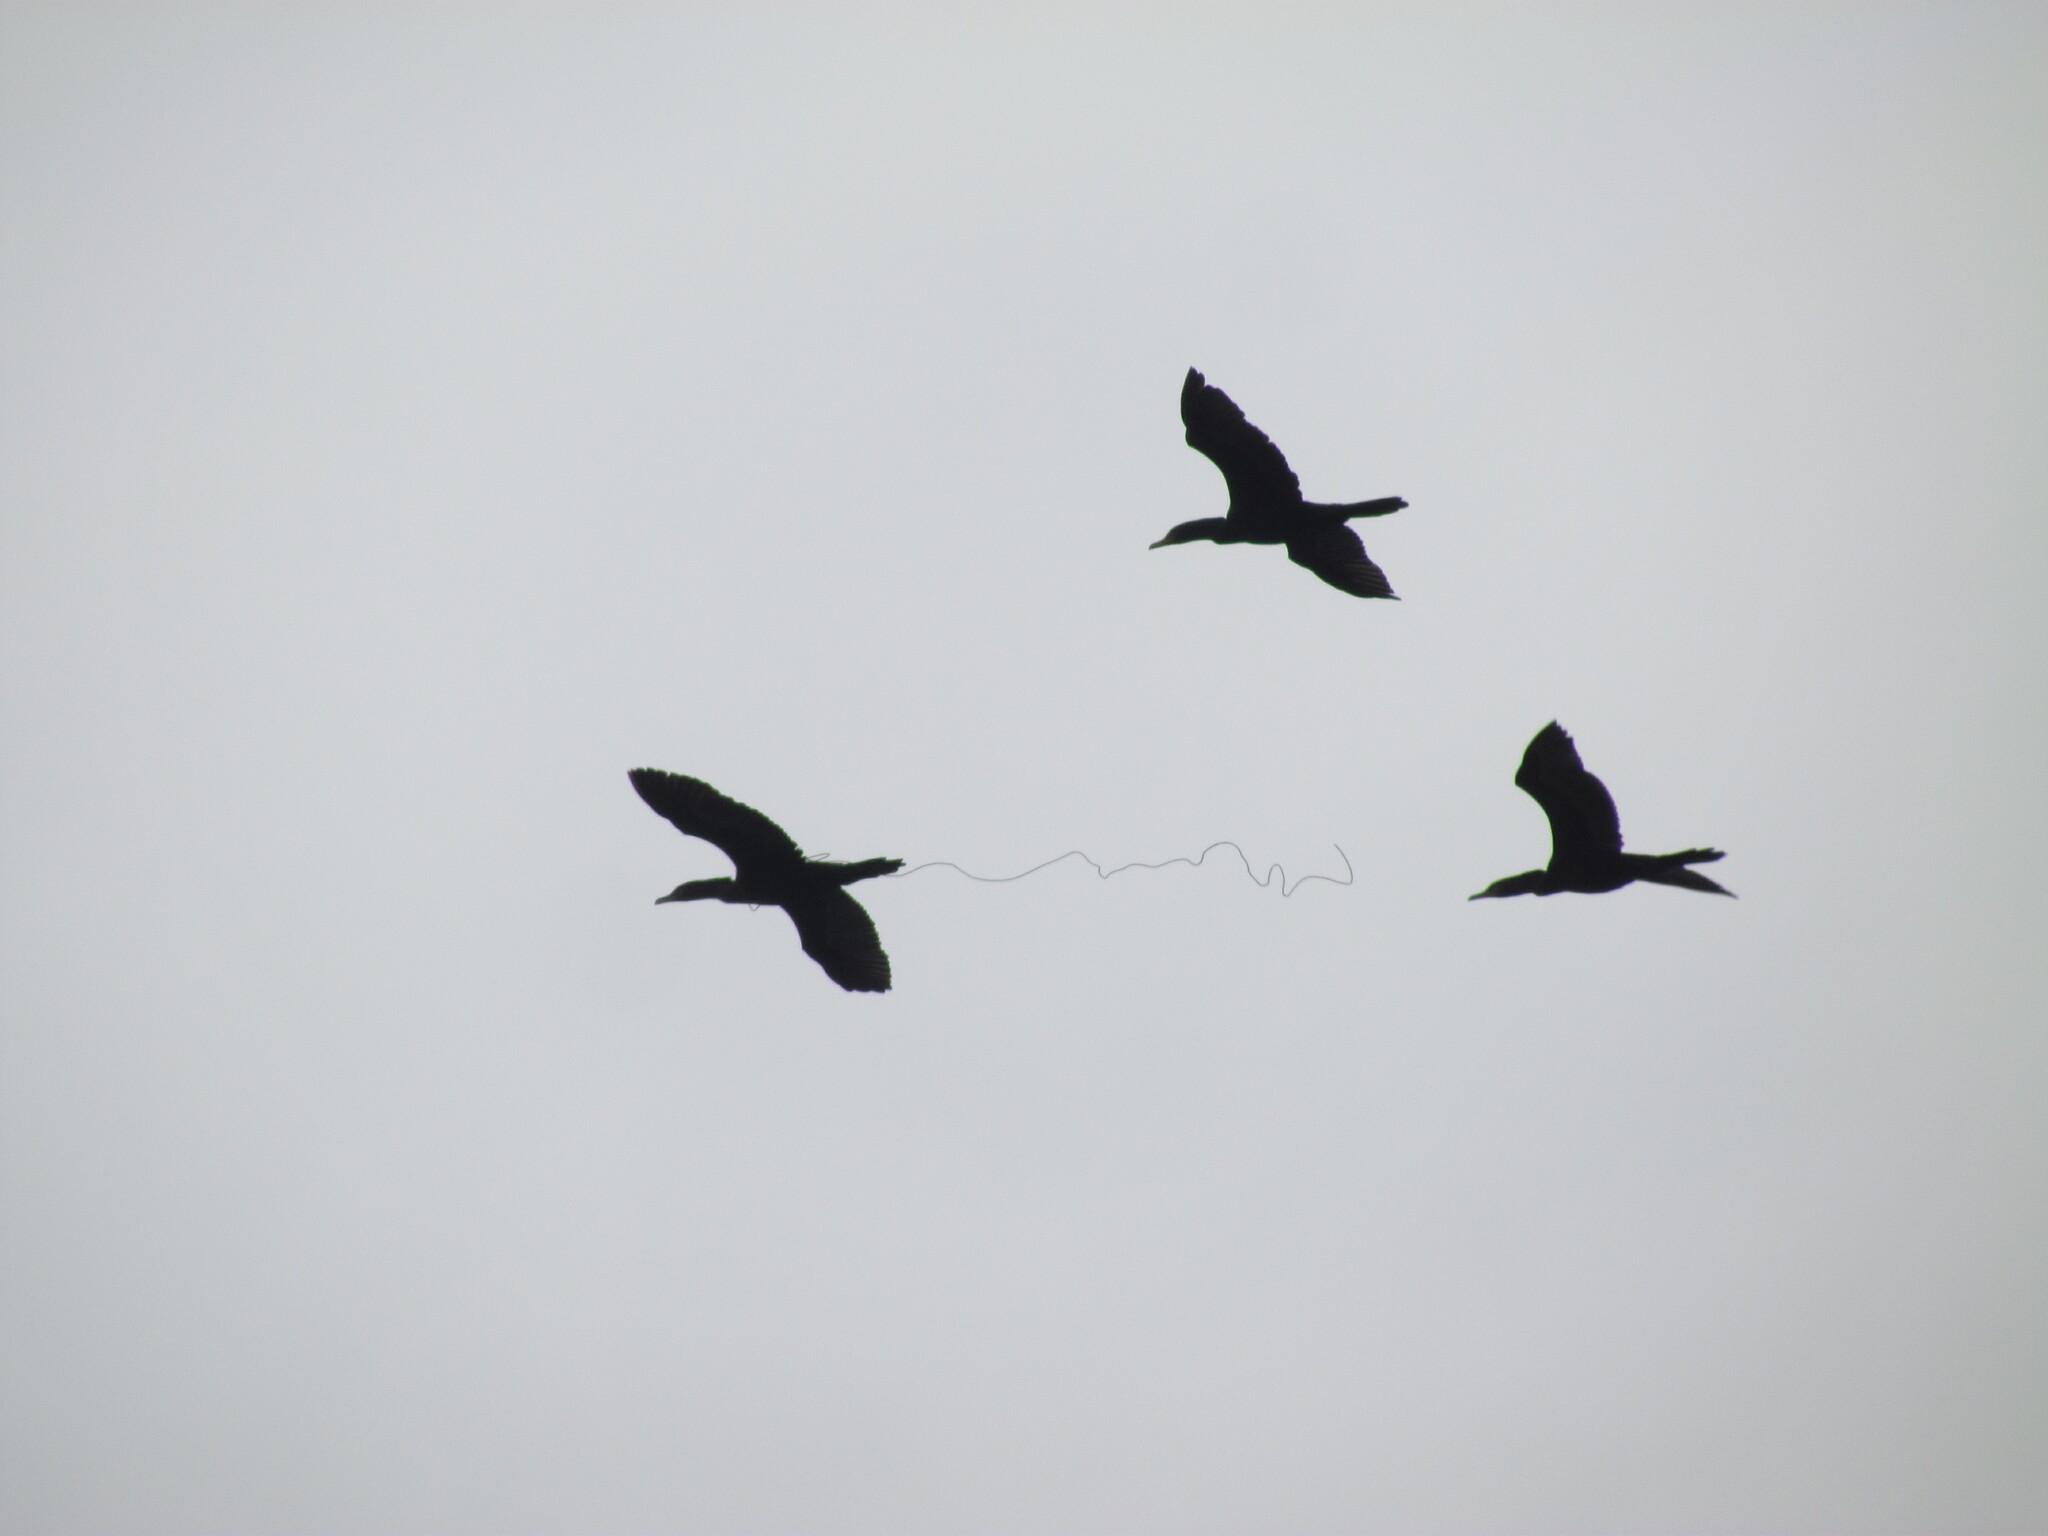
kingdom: Animalia
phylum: Chordata
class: Aves
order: Suliformes
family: Phalacrocoracidae
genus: Phalacrocorax
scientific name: Phalacrocorax brasilianus
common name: Neotropic cormorant
